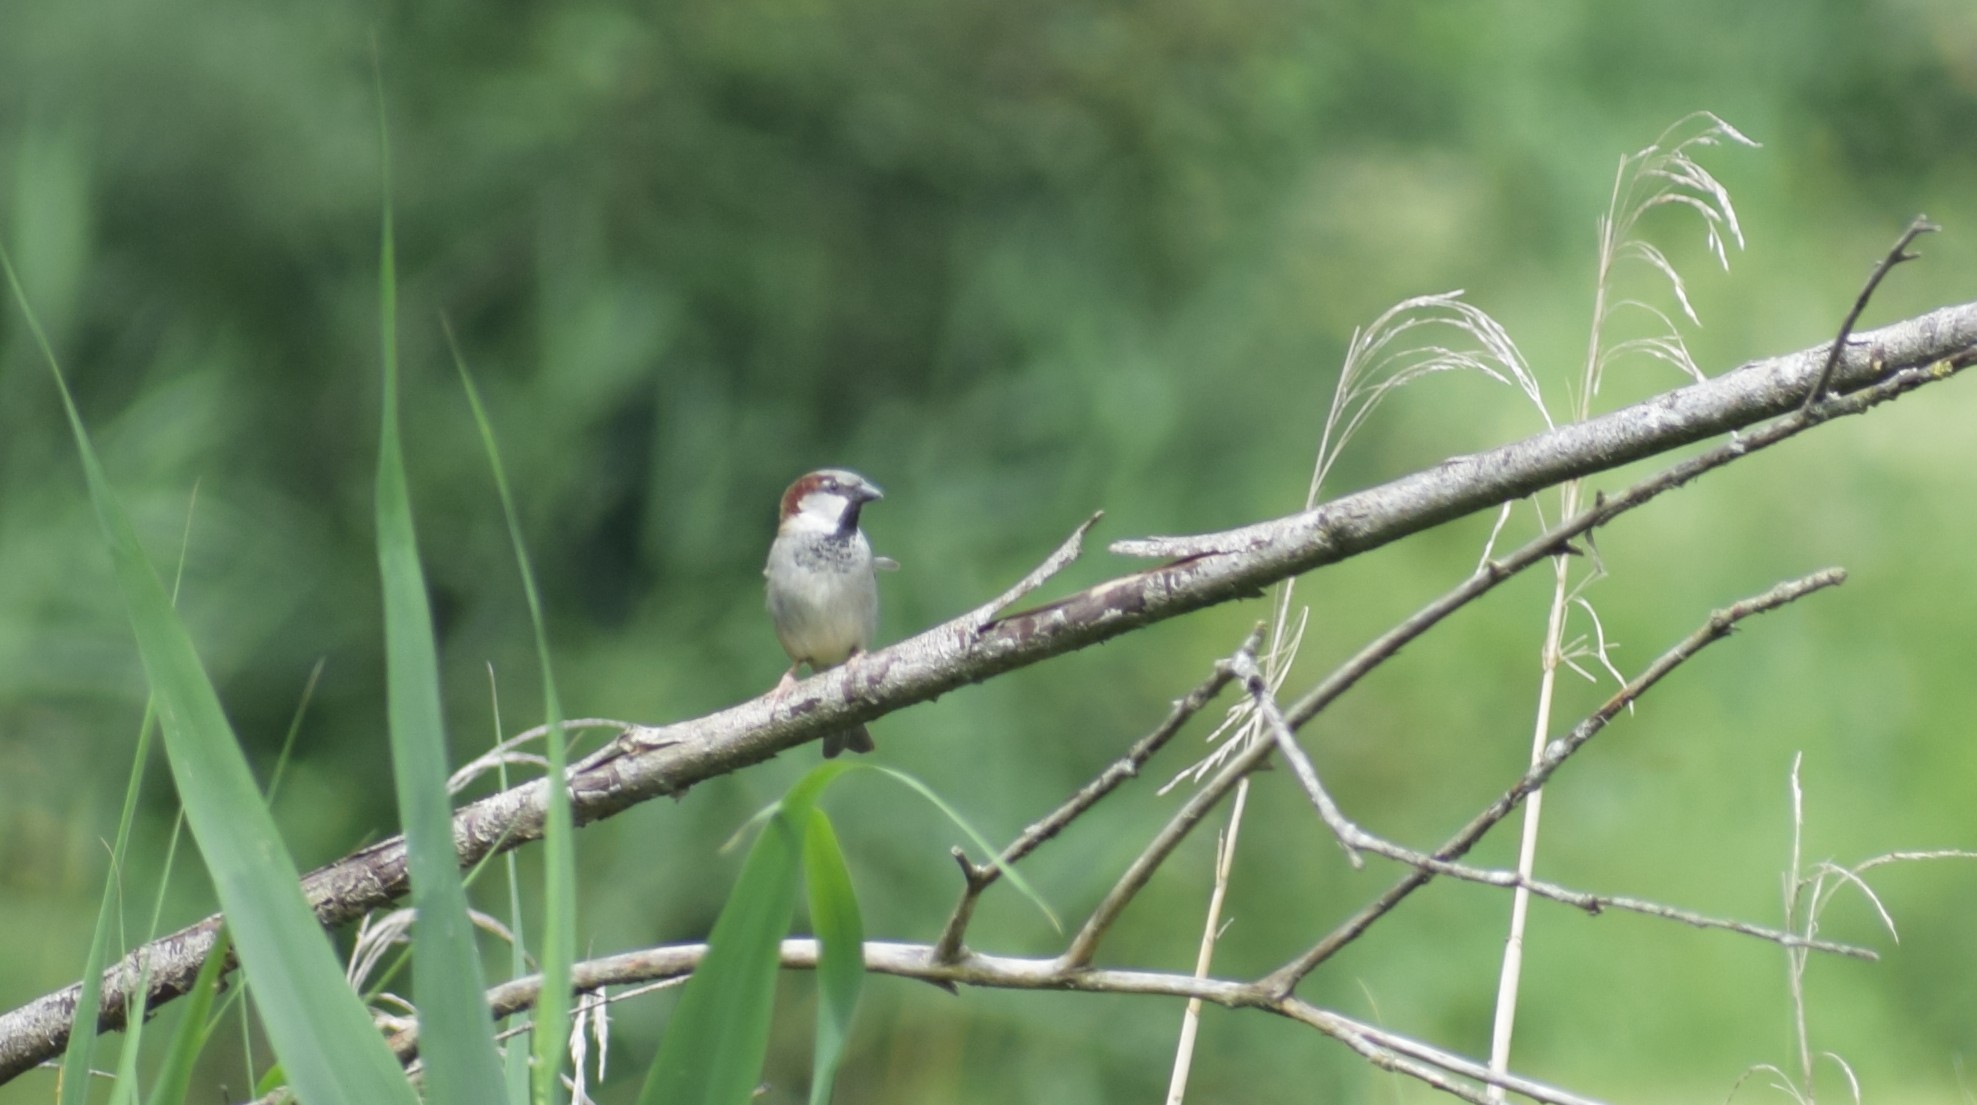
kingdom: Animalia
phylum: Chordata
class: Aves
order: Passeriformes
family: Passeridae
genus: Passer
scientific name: Passer domesticus
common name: House sparrow
